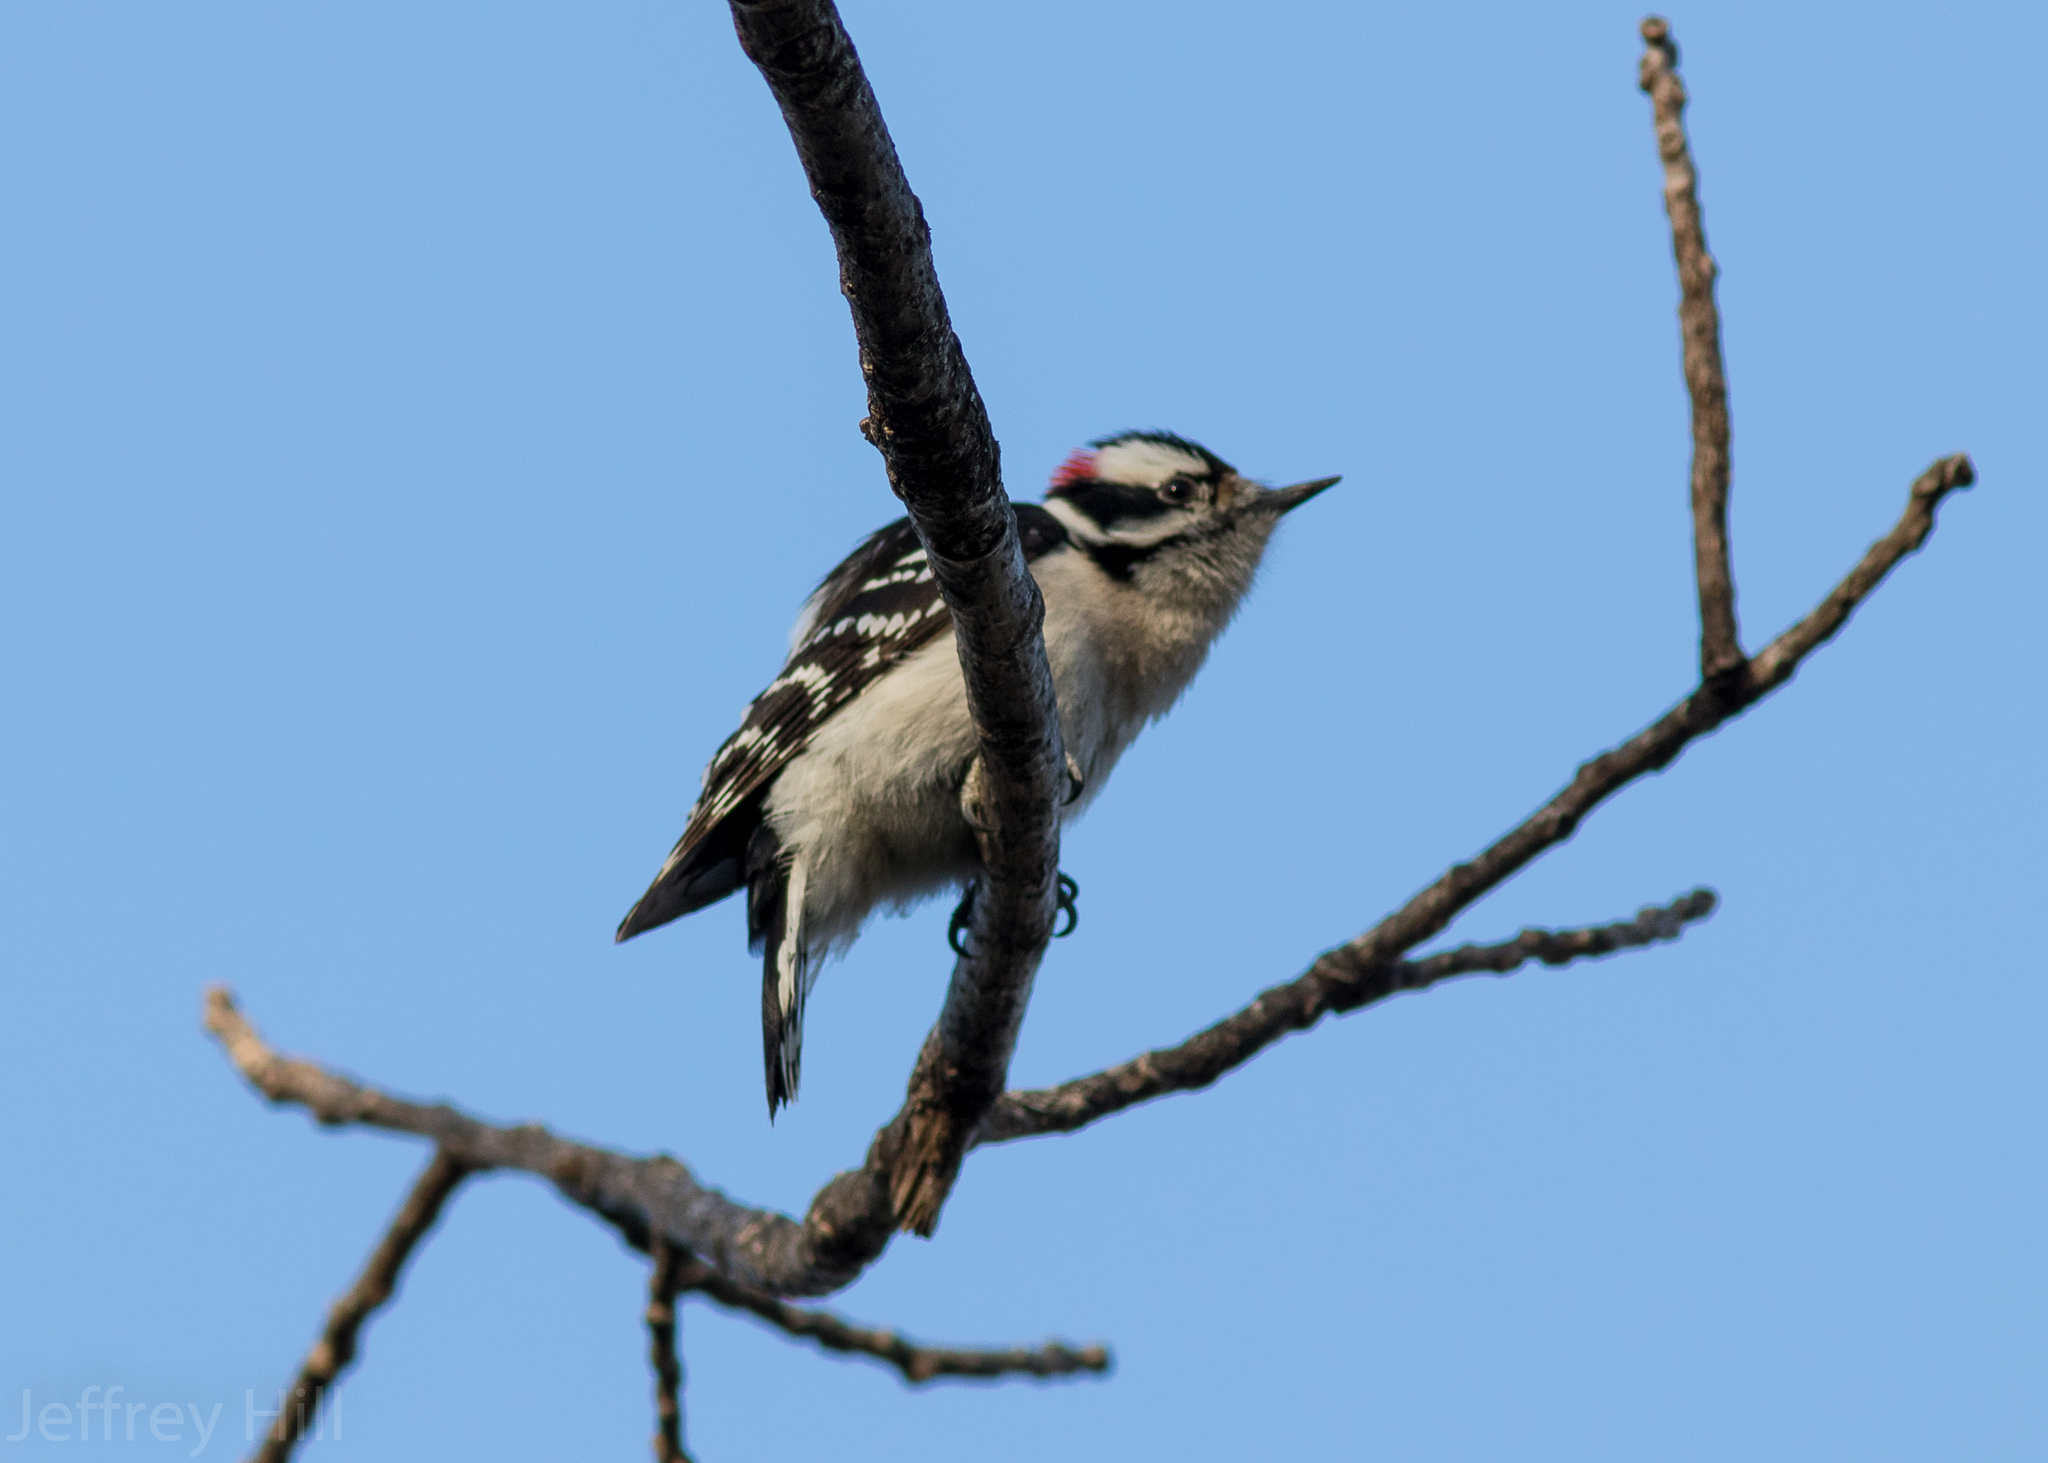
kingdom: Animalia
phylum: Chordata
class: Aves
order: Piciformes
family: Picidae
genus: Dryobates
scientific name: Dryobates pubescens
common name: Downy woodpecker
